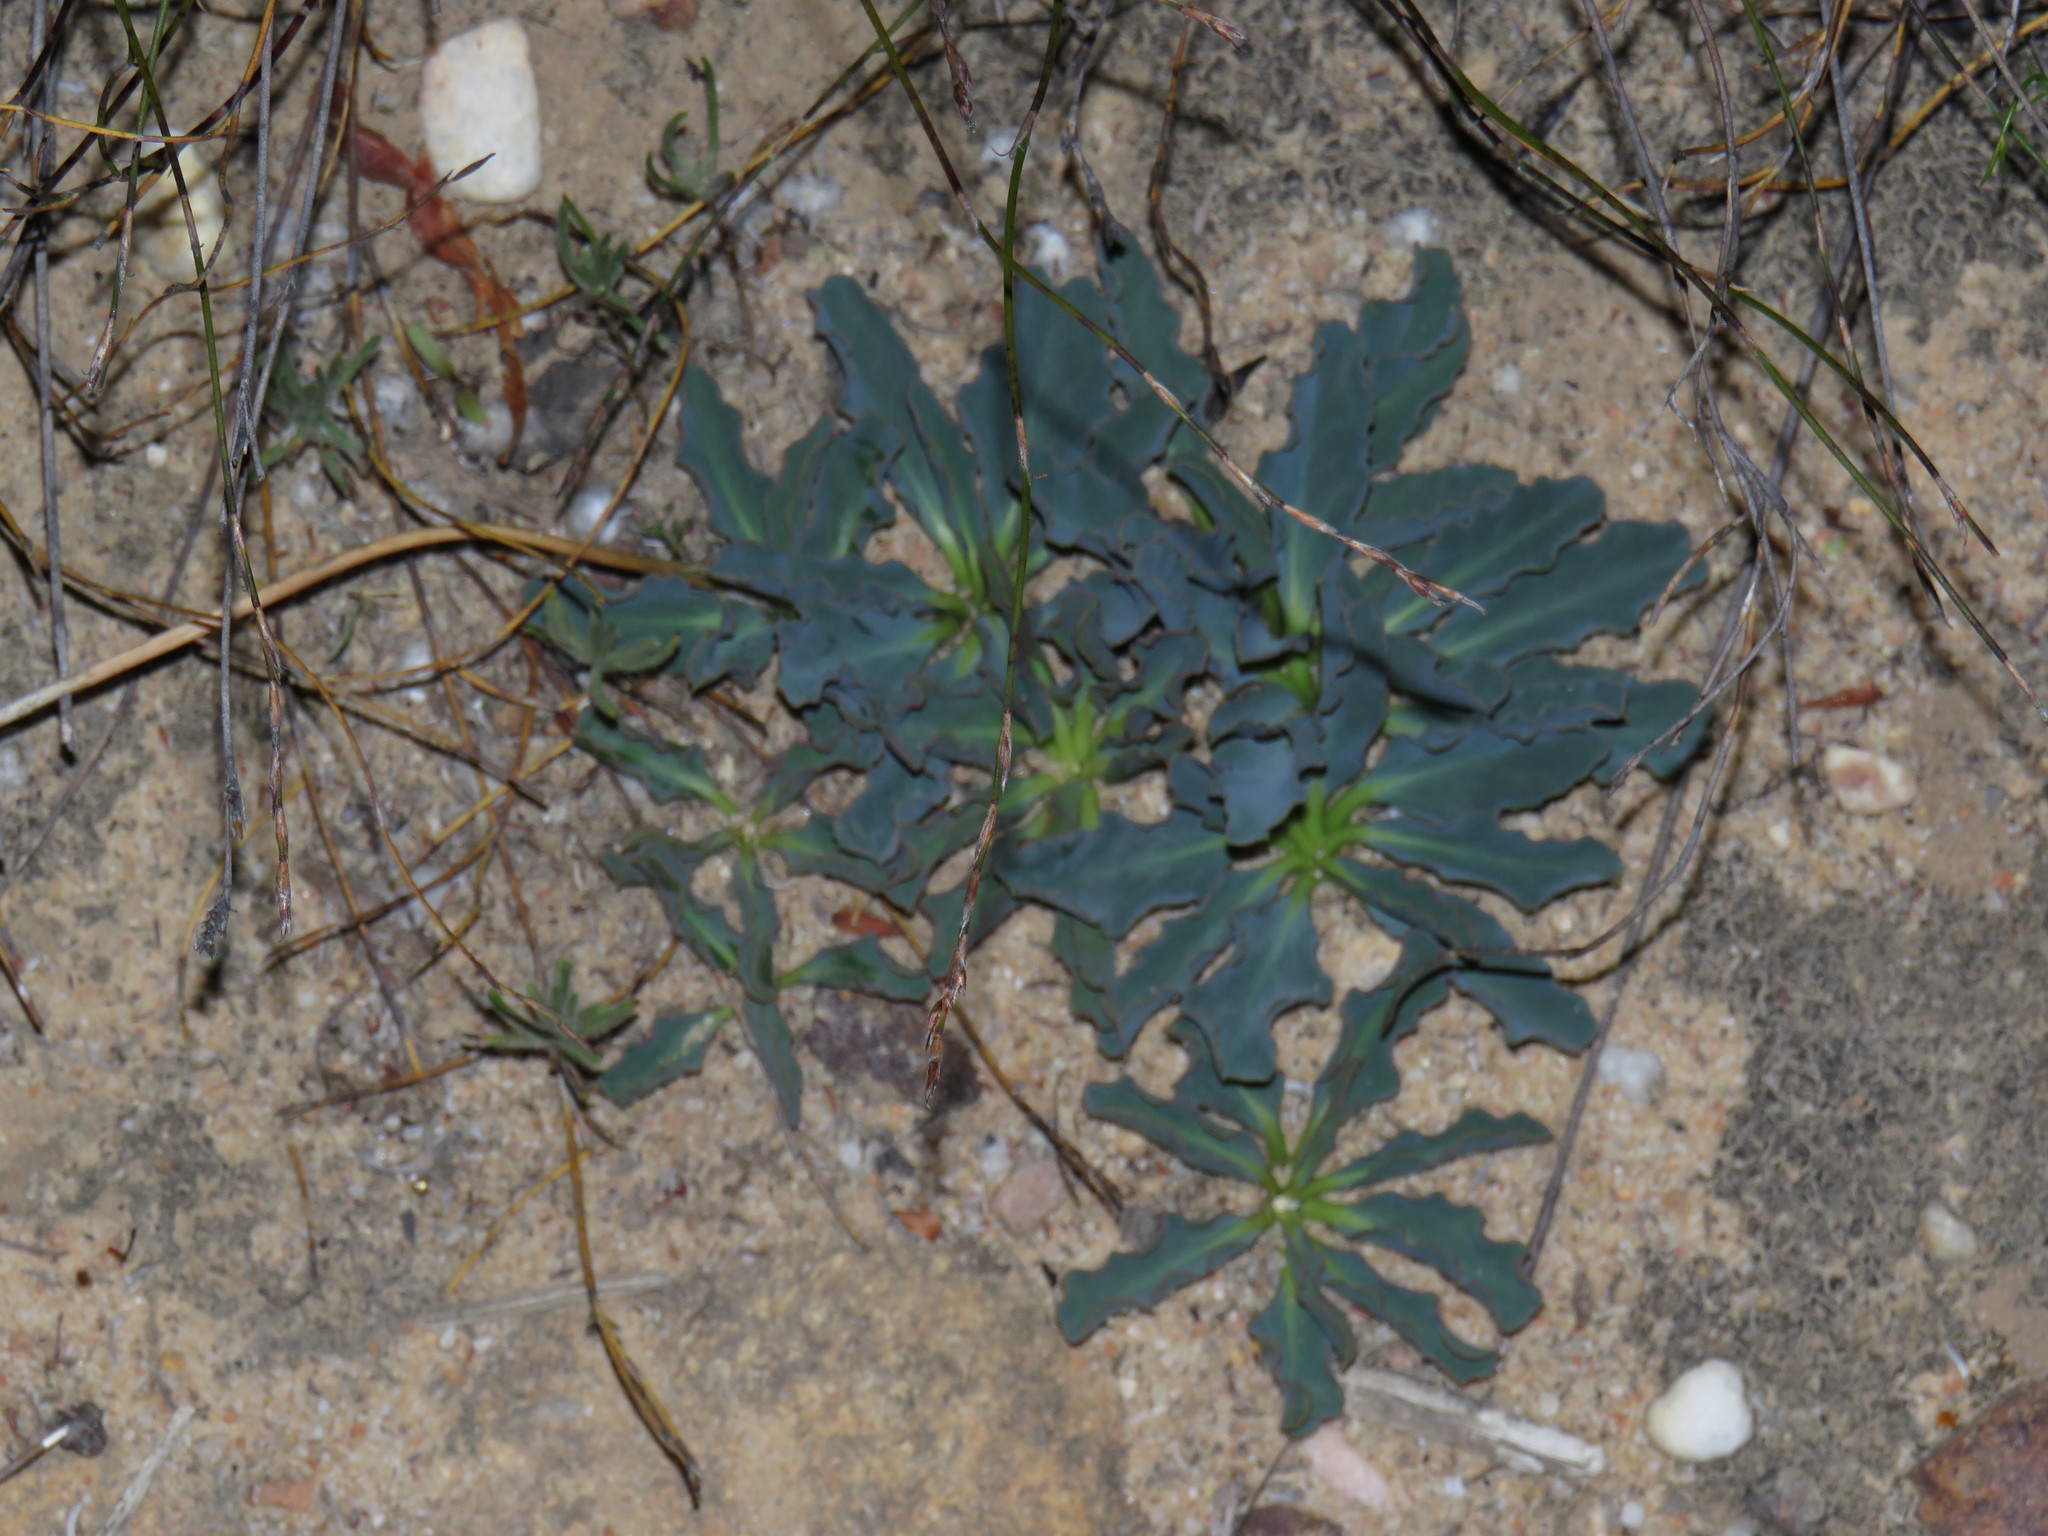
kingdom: Plantae
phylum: Tracheophyta
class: Magnoliopsida
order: Malpighiales
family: Euphorbiaceae
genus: Euphorbia
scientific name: Euphorbia tuberosa
